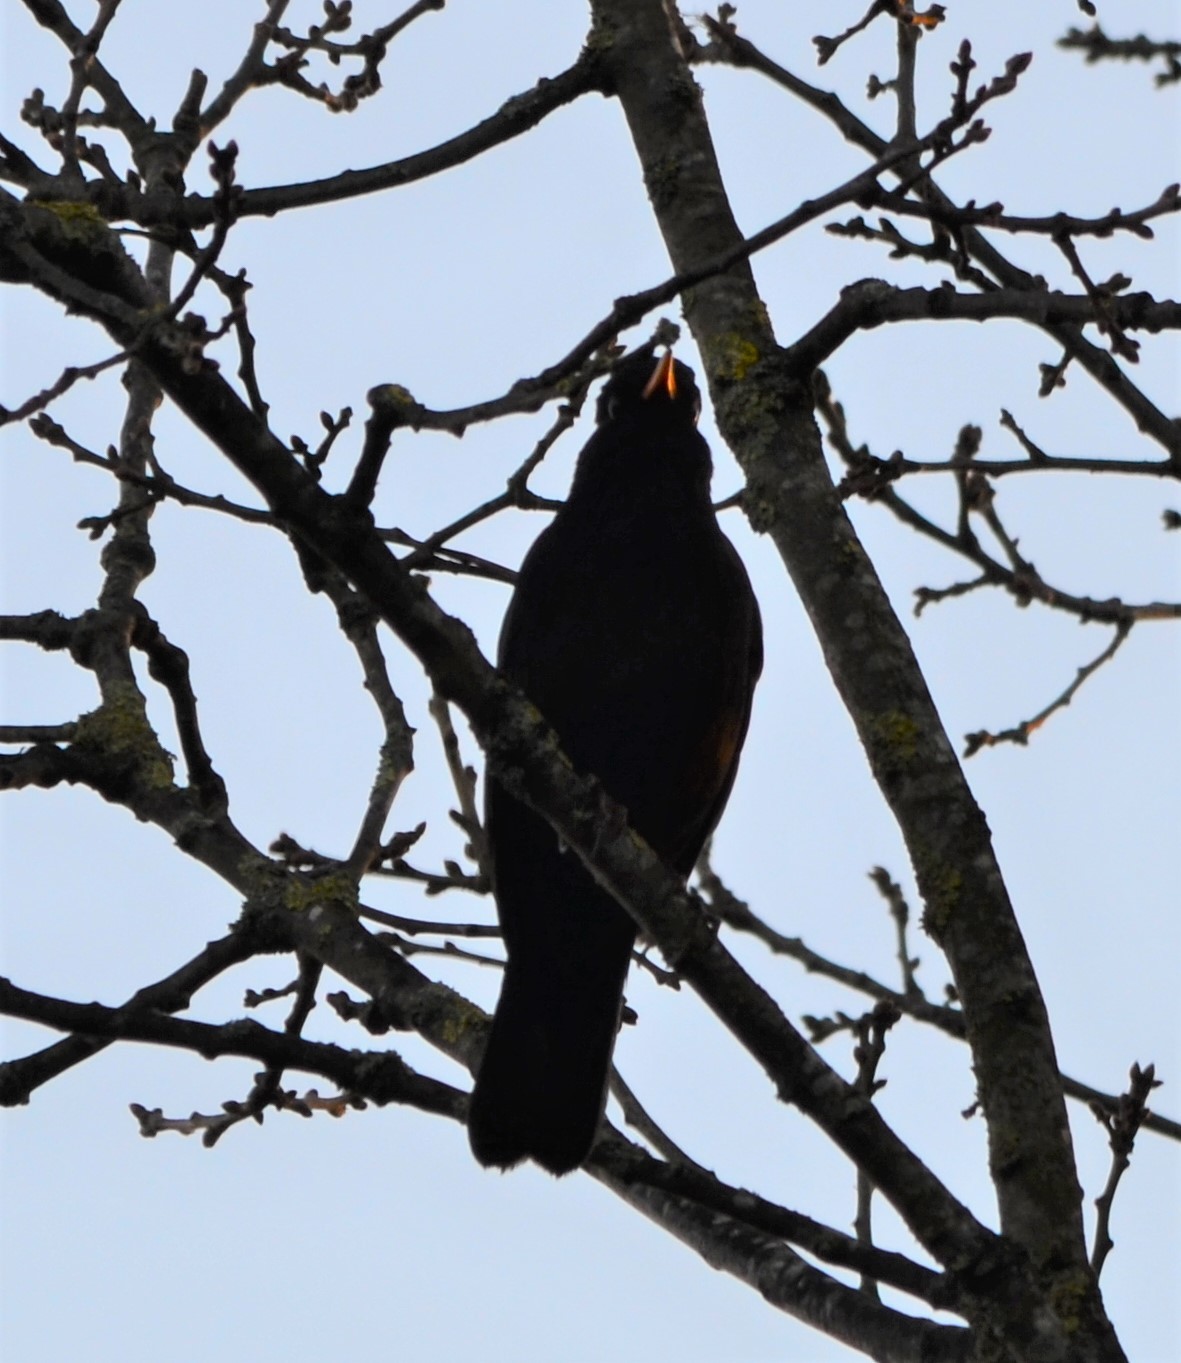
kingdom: Animalia
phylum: Chordata
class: Aves
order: Passeriformes
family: Turdidae
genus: Turdus
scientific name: Turdus merula
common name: Common blackbird
